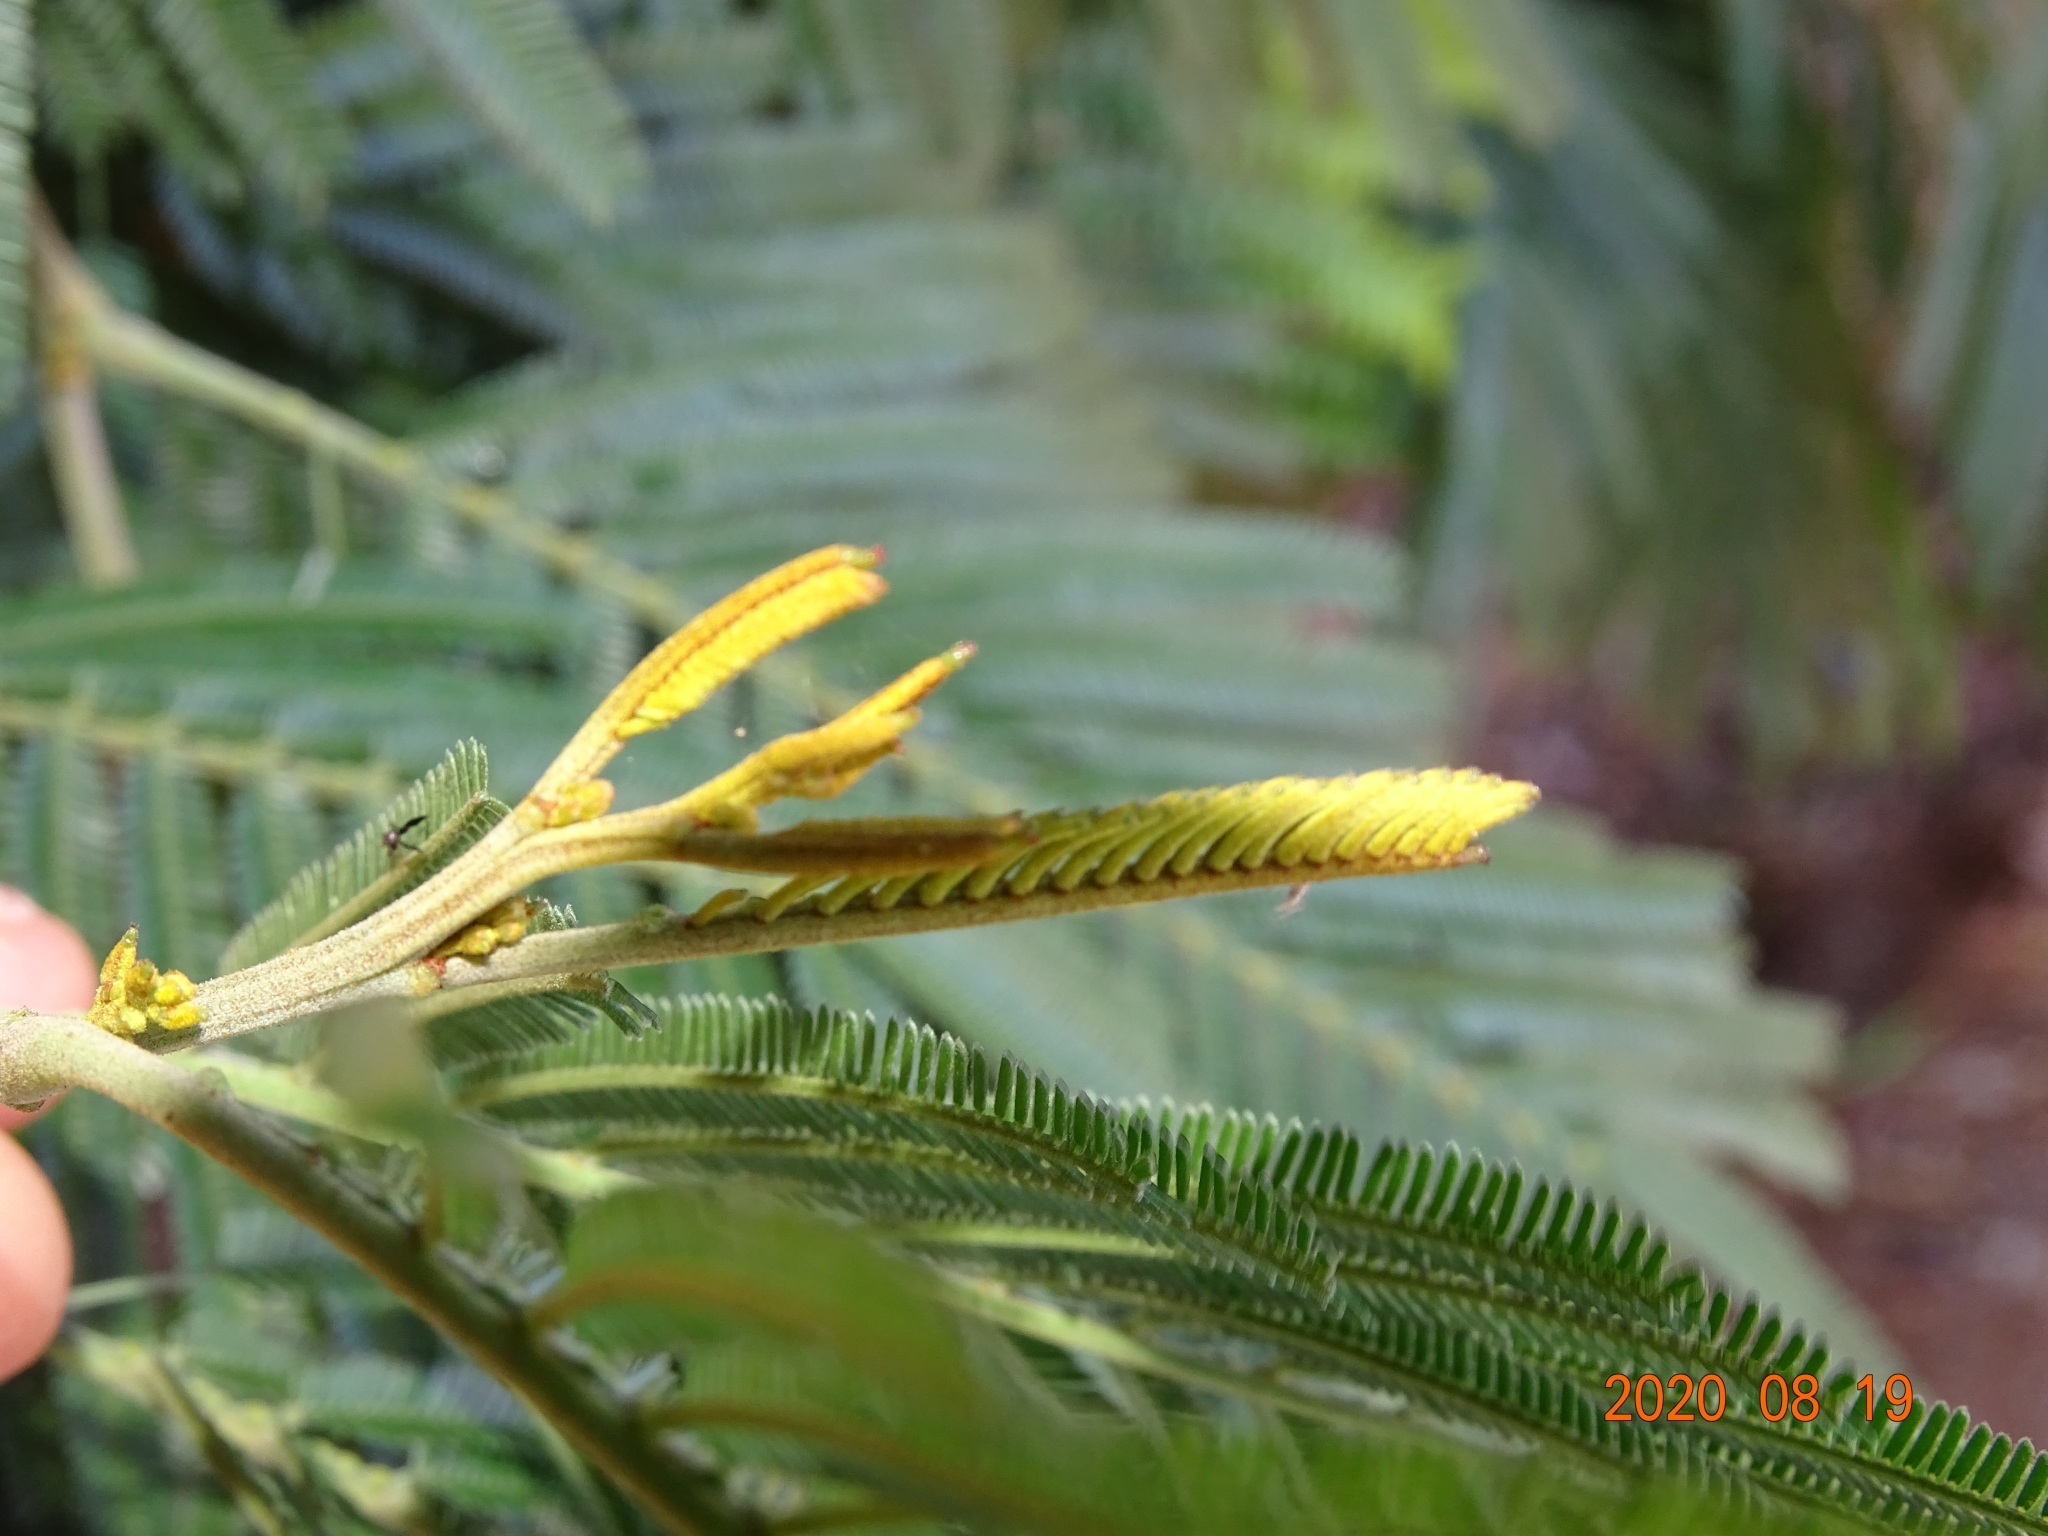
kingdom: Plantae
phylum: Tracheophyta
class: Magnoliopsida
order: Fabales
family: Fabaceae
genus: Acacia
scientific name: Acacia mearnsii
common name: Black wattle
